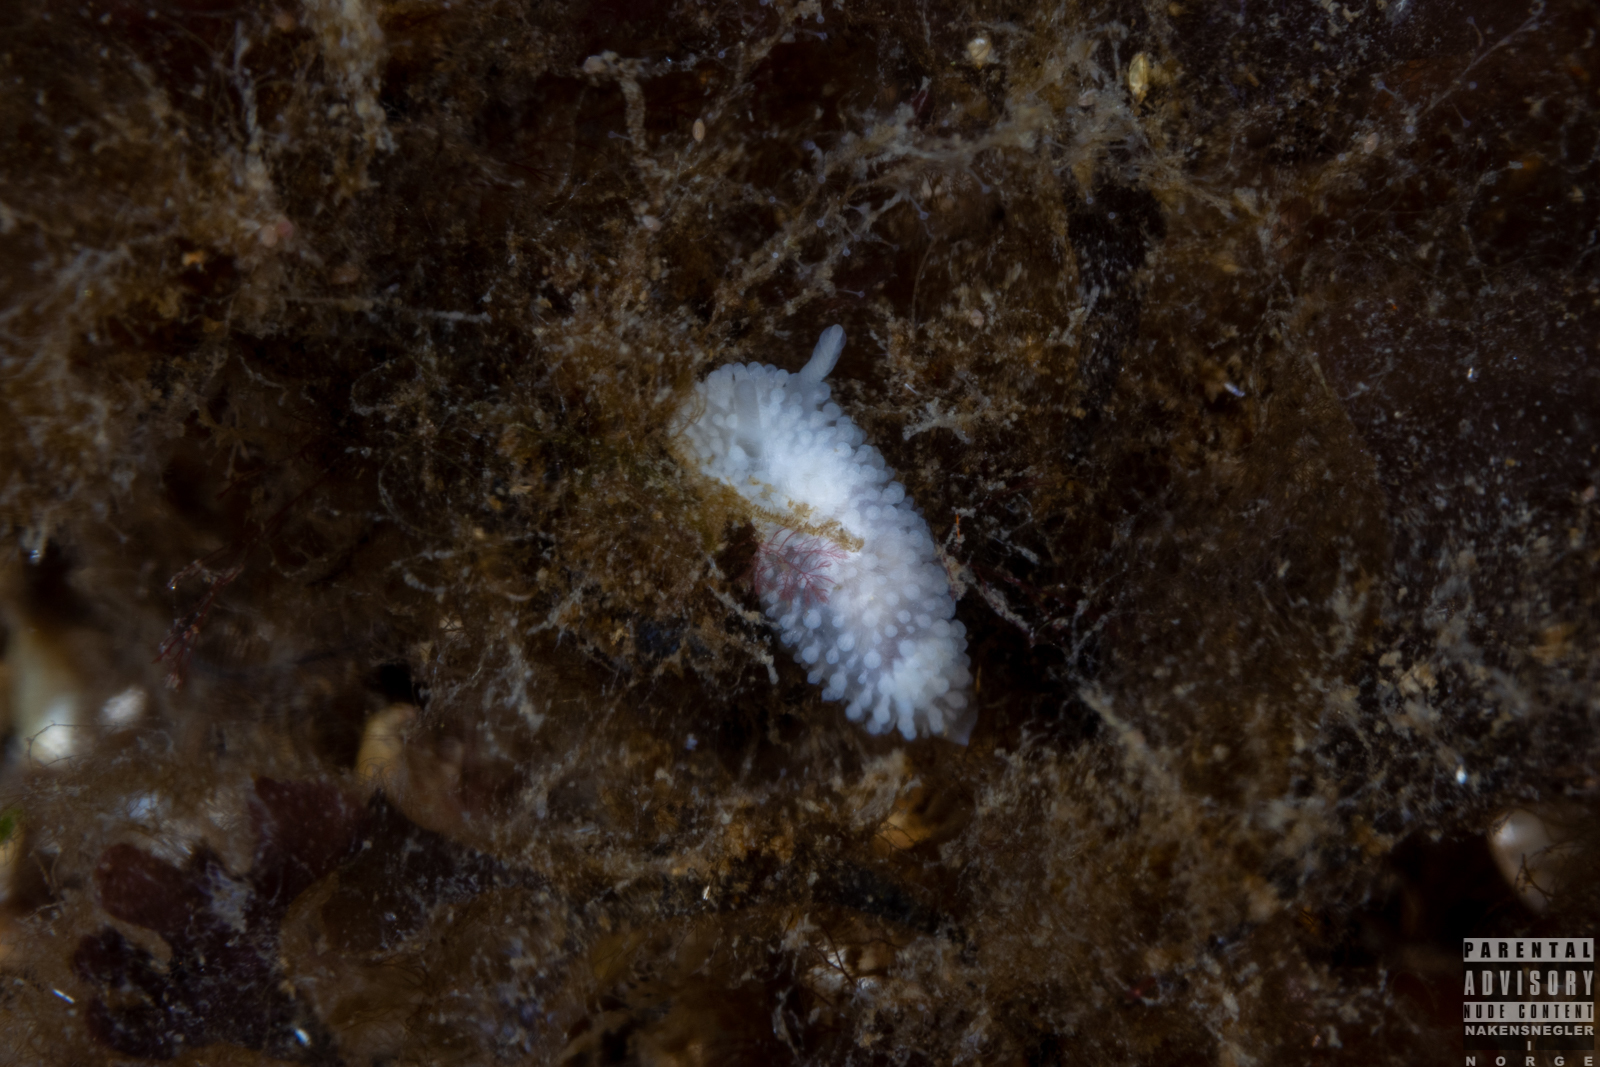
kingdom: Animalia
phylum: Mollusca
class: Gastropoda
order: Nudibranchia
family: Onchidorididae
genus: Onchidoris
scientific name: Onchidoris muricata
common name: Rough doris
